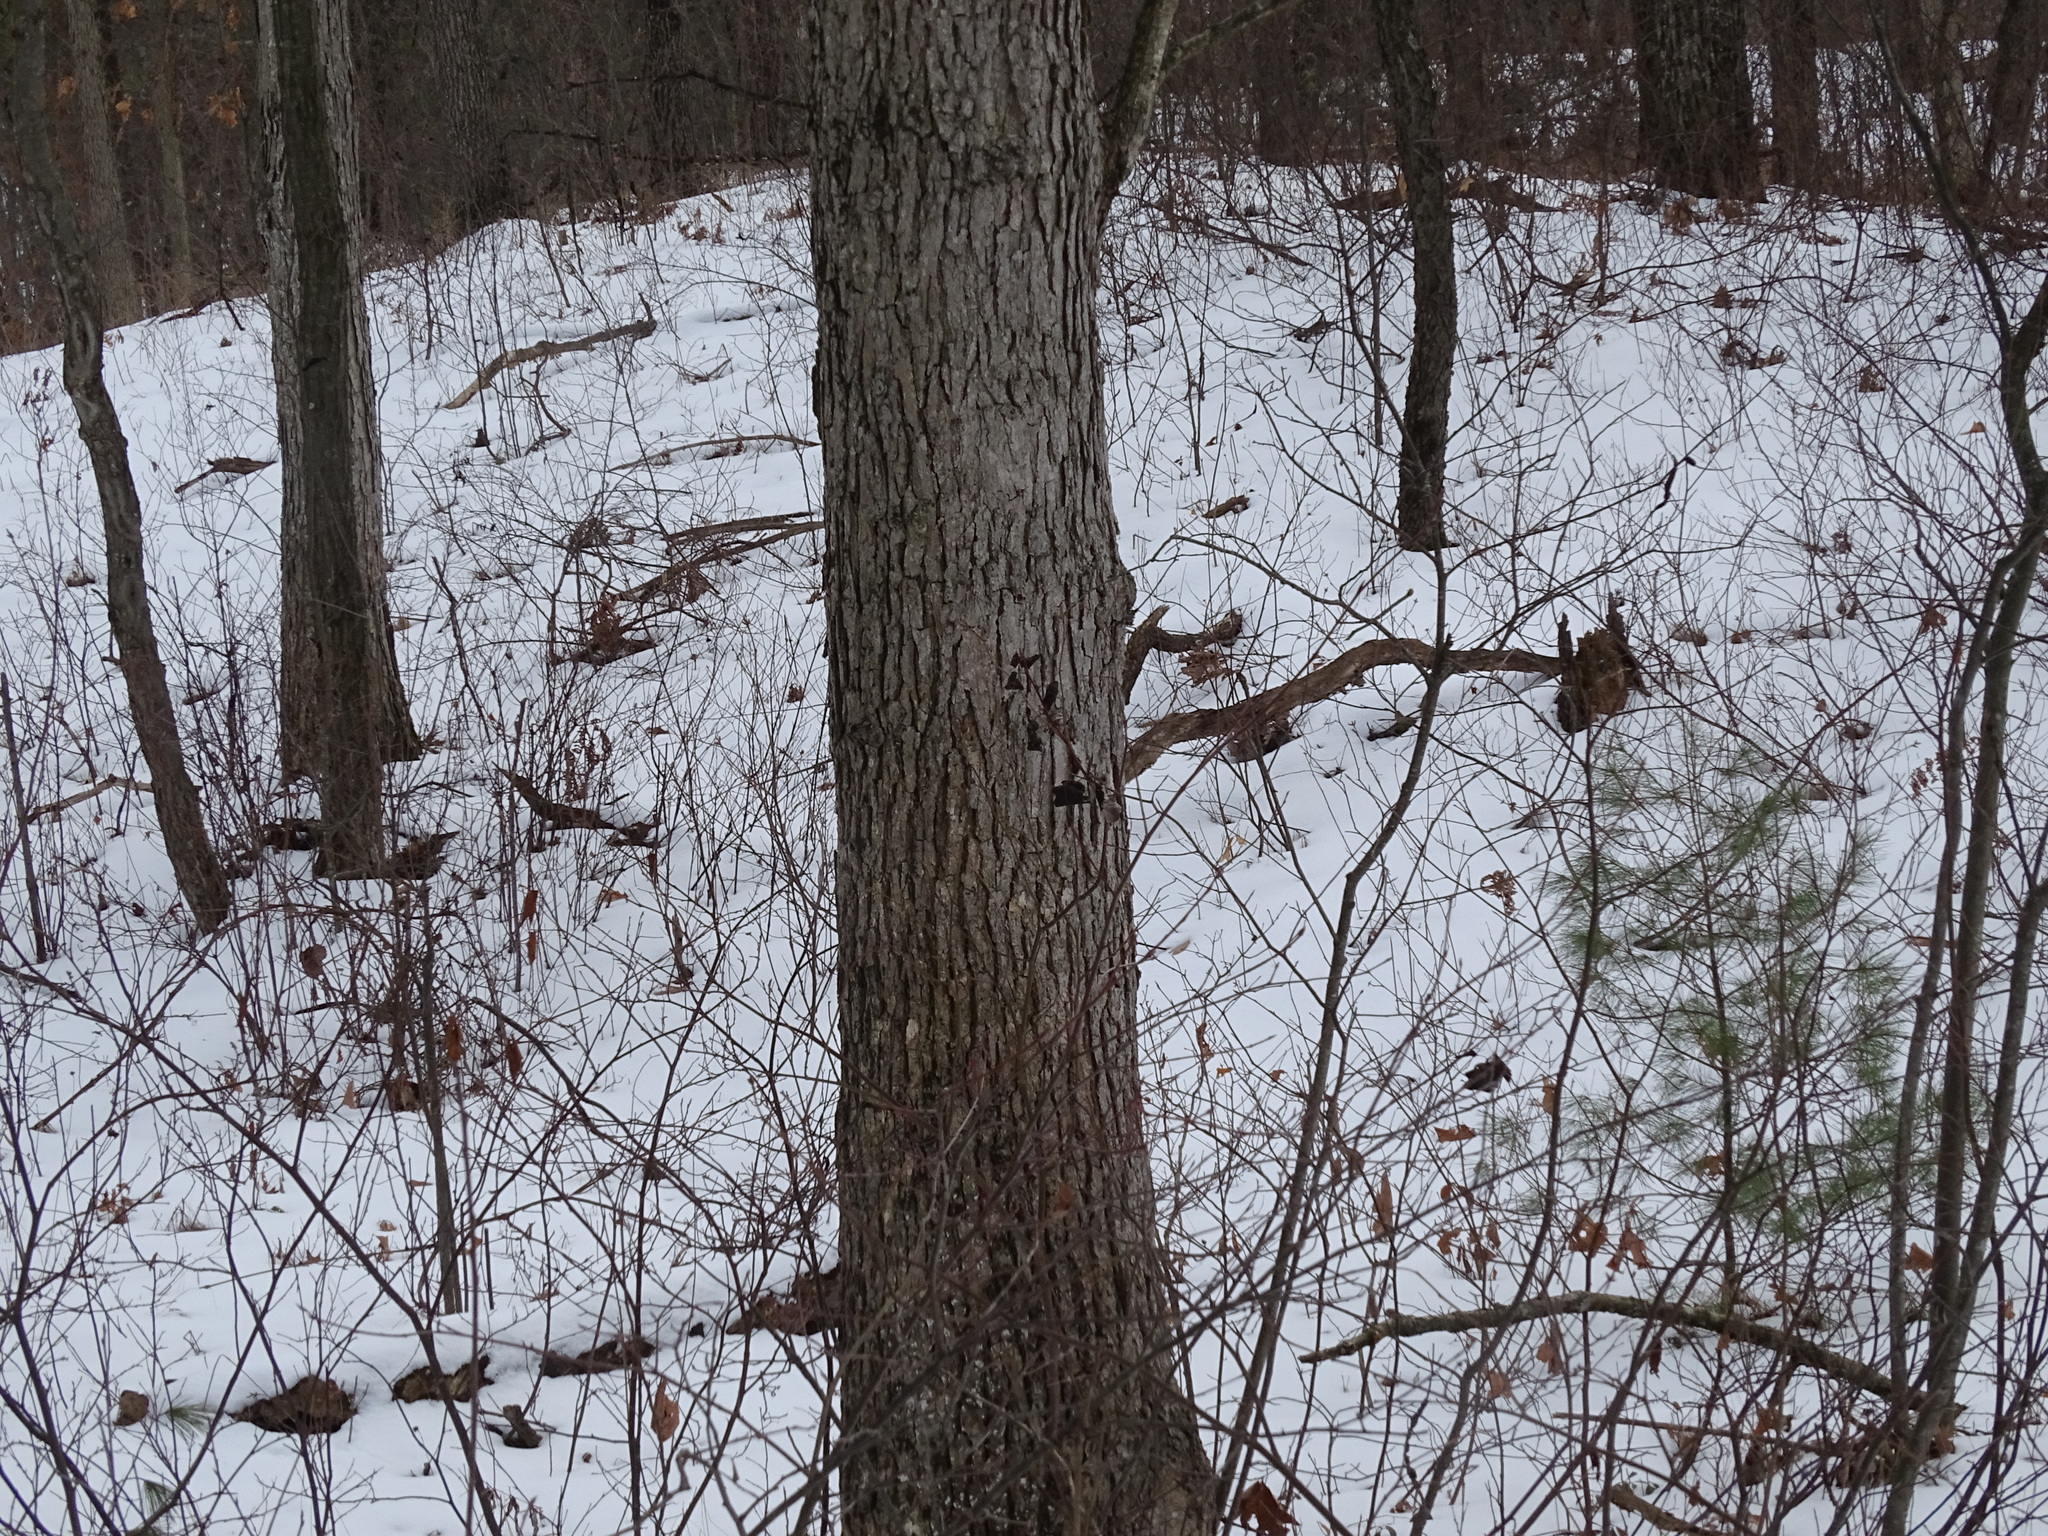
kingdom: Plantae
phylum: Tracheophyta
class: Magnoliopsida
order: Fagales
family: Fagaceae
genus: Quercus
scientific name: Quercus alba
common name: White oak
